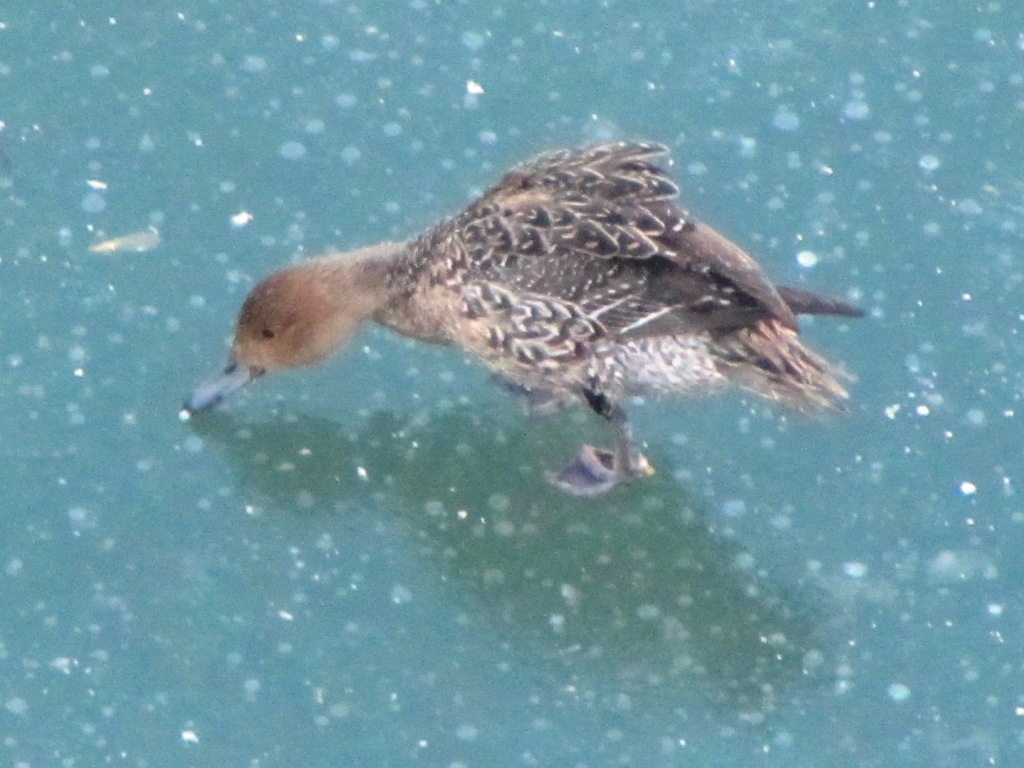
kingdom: Animalia
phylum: Chordata
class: Aves
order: Anseriformes
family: Anatidae
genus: Anas
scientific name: Anas acuta
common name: Northern pintail
